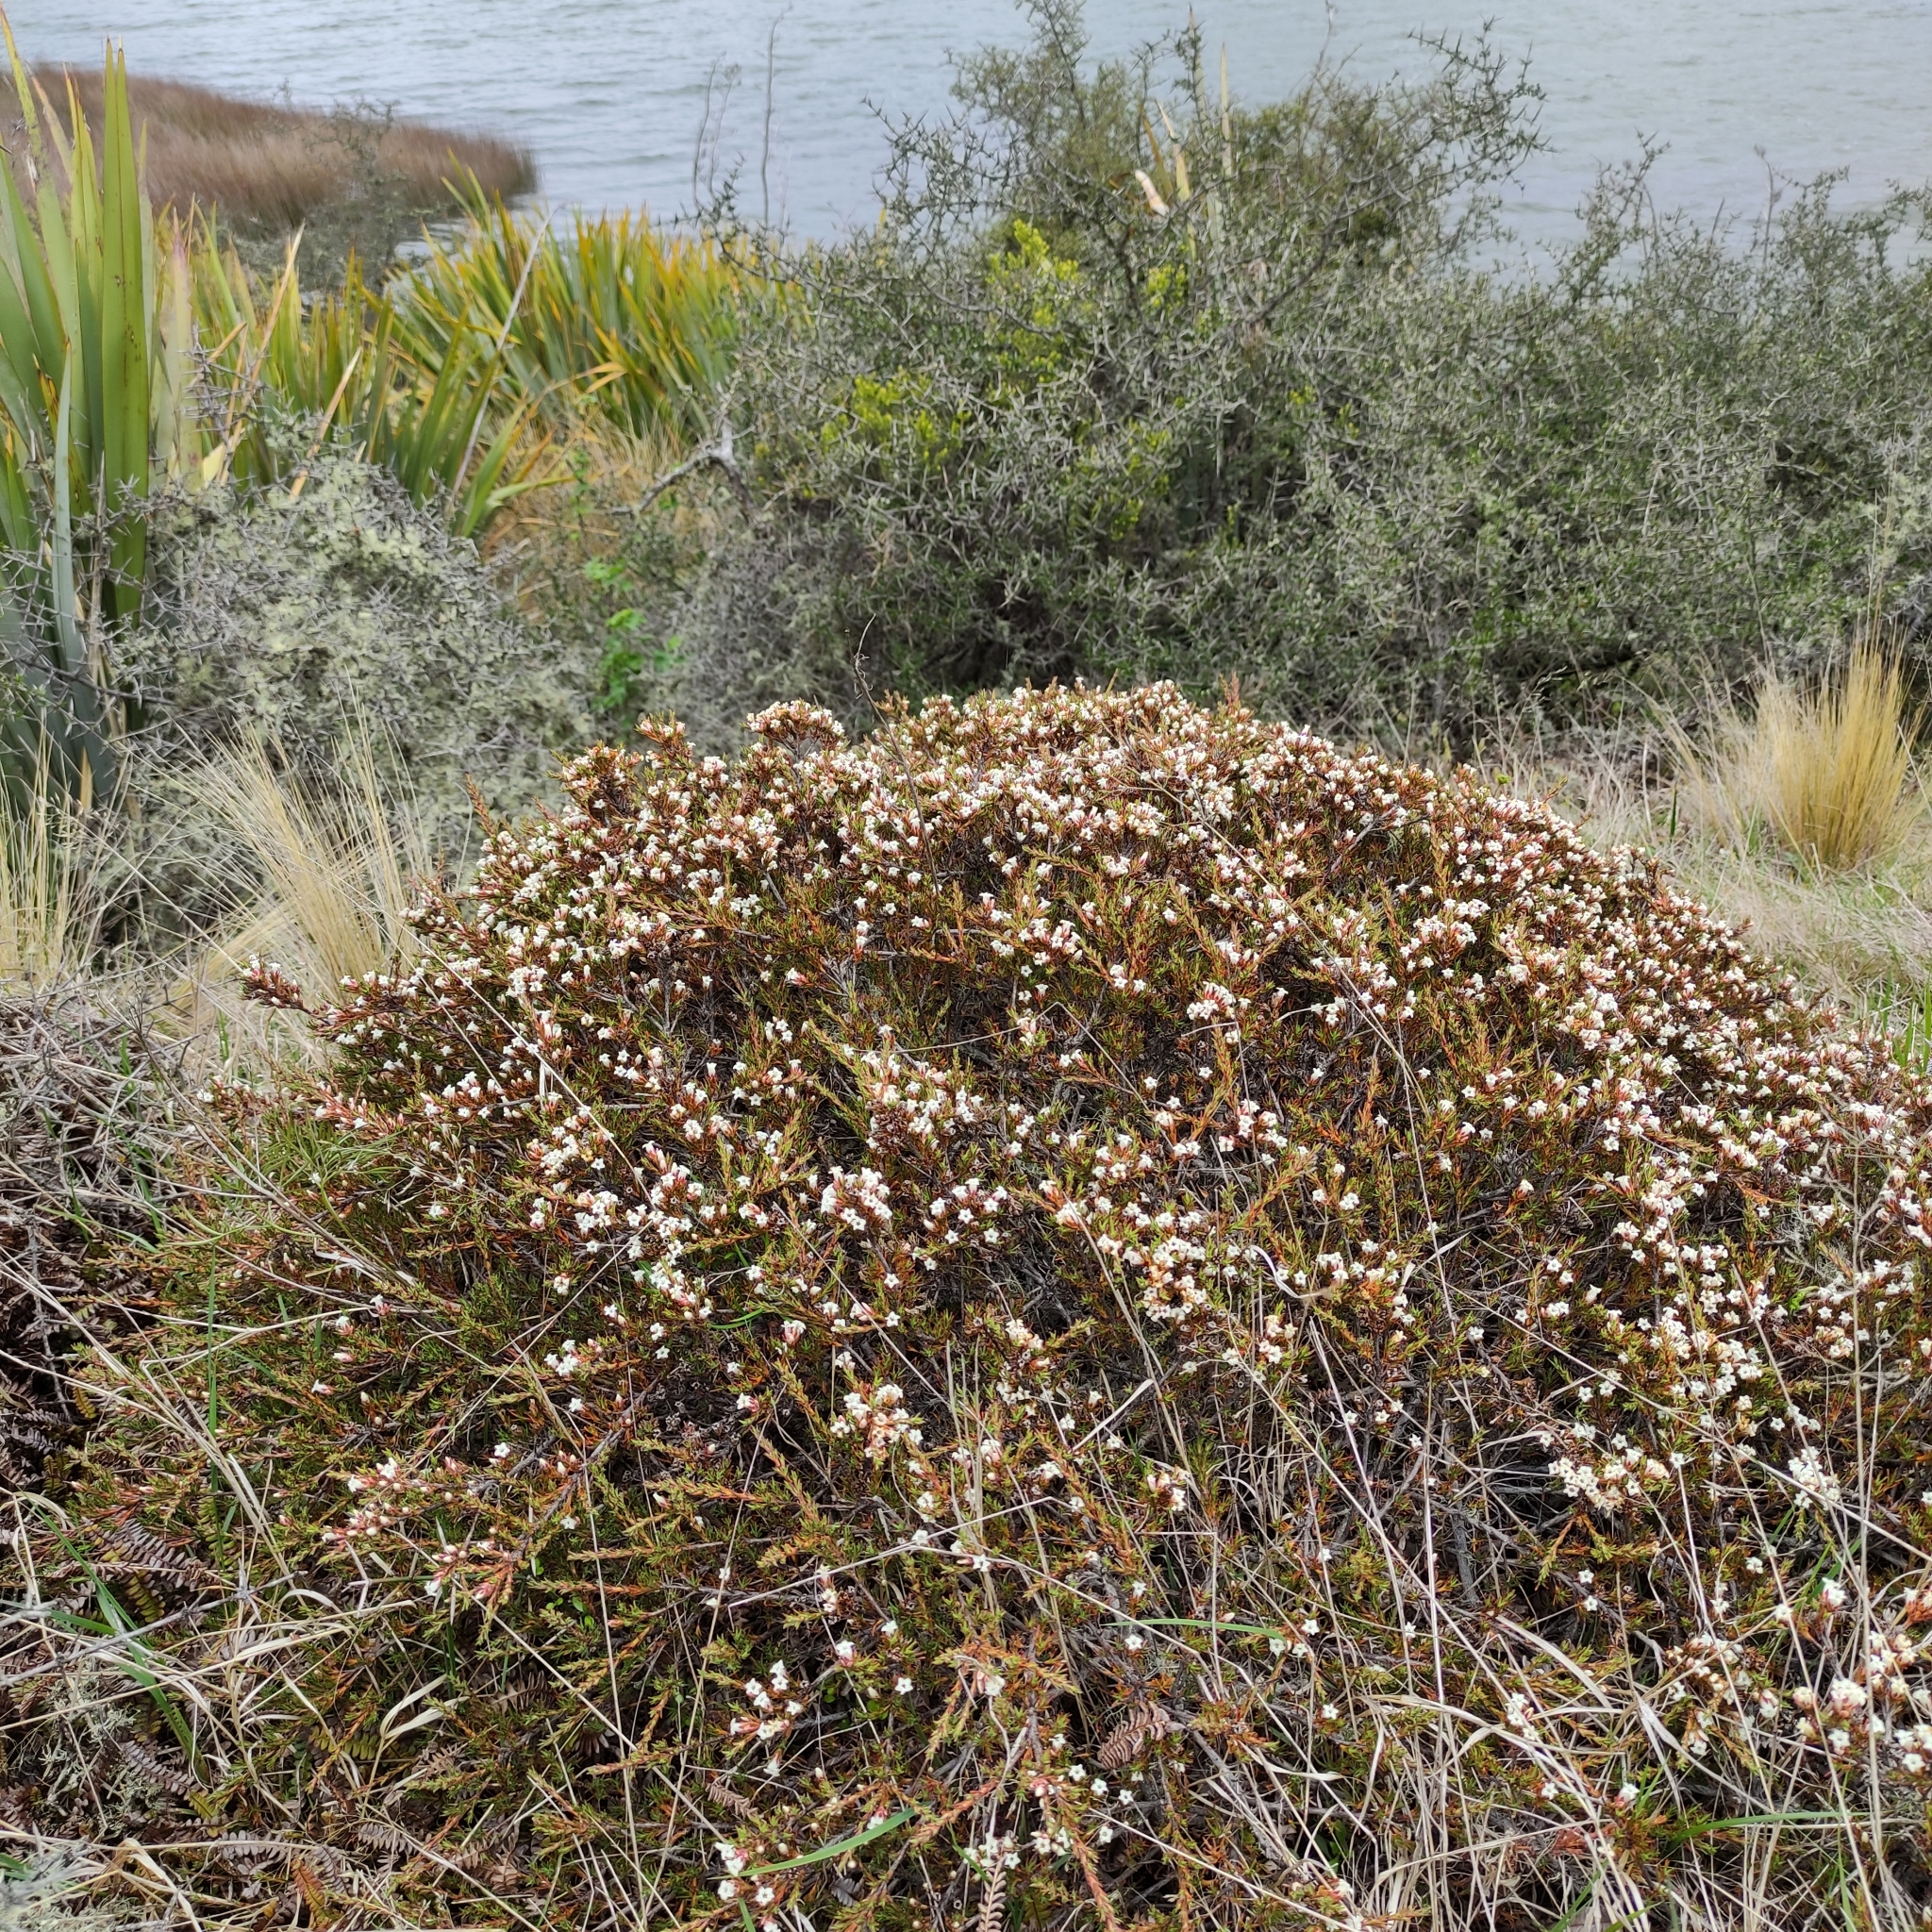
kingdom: Plantae
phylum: Tracheophyta
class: Magnoliopsida
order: Ericales
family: Ericaceae
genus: Dracophyllum
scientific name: Dracophyllum rosmarinifolium
